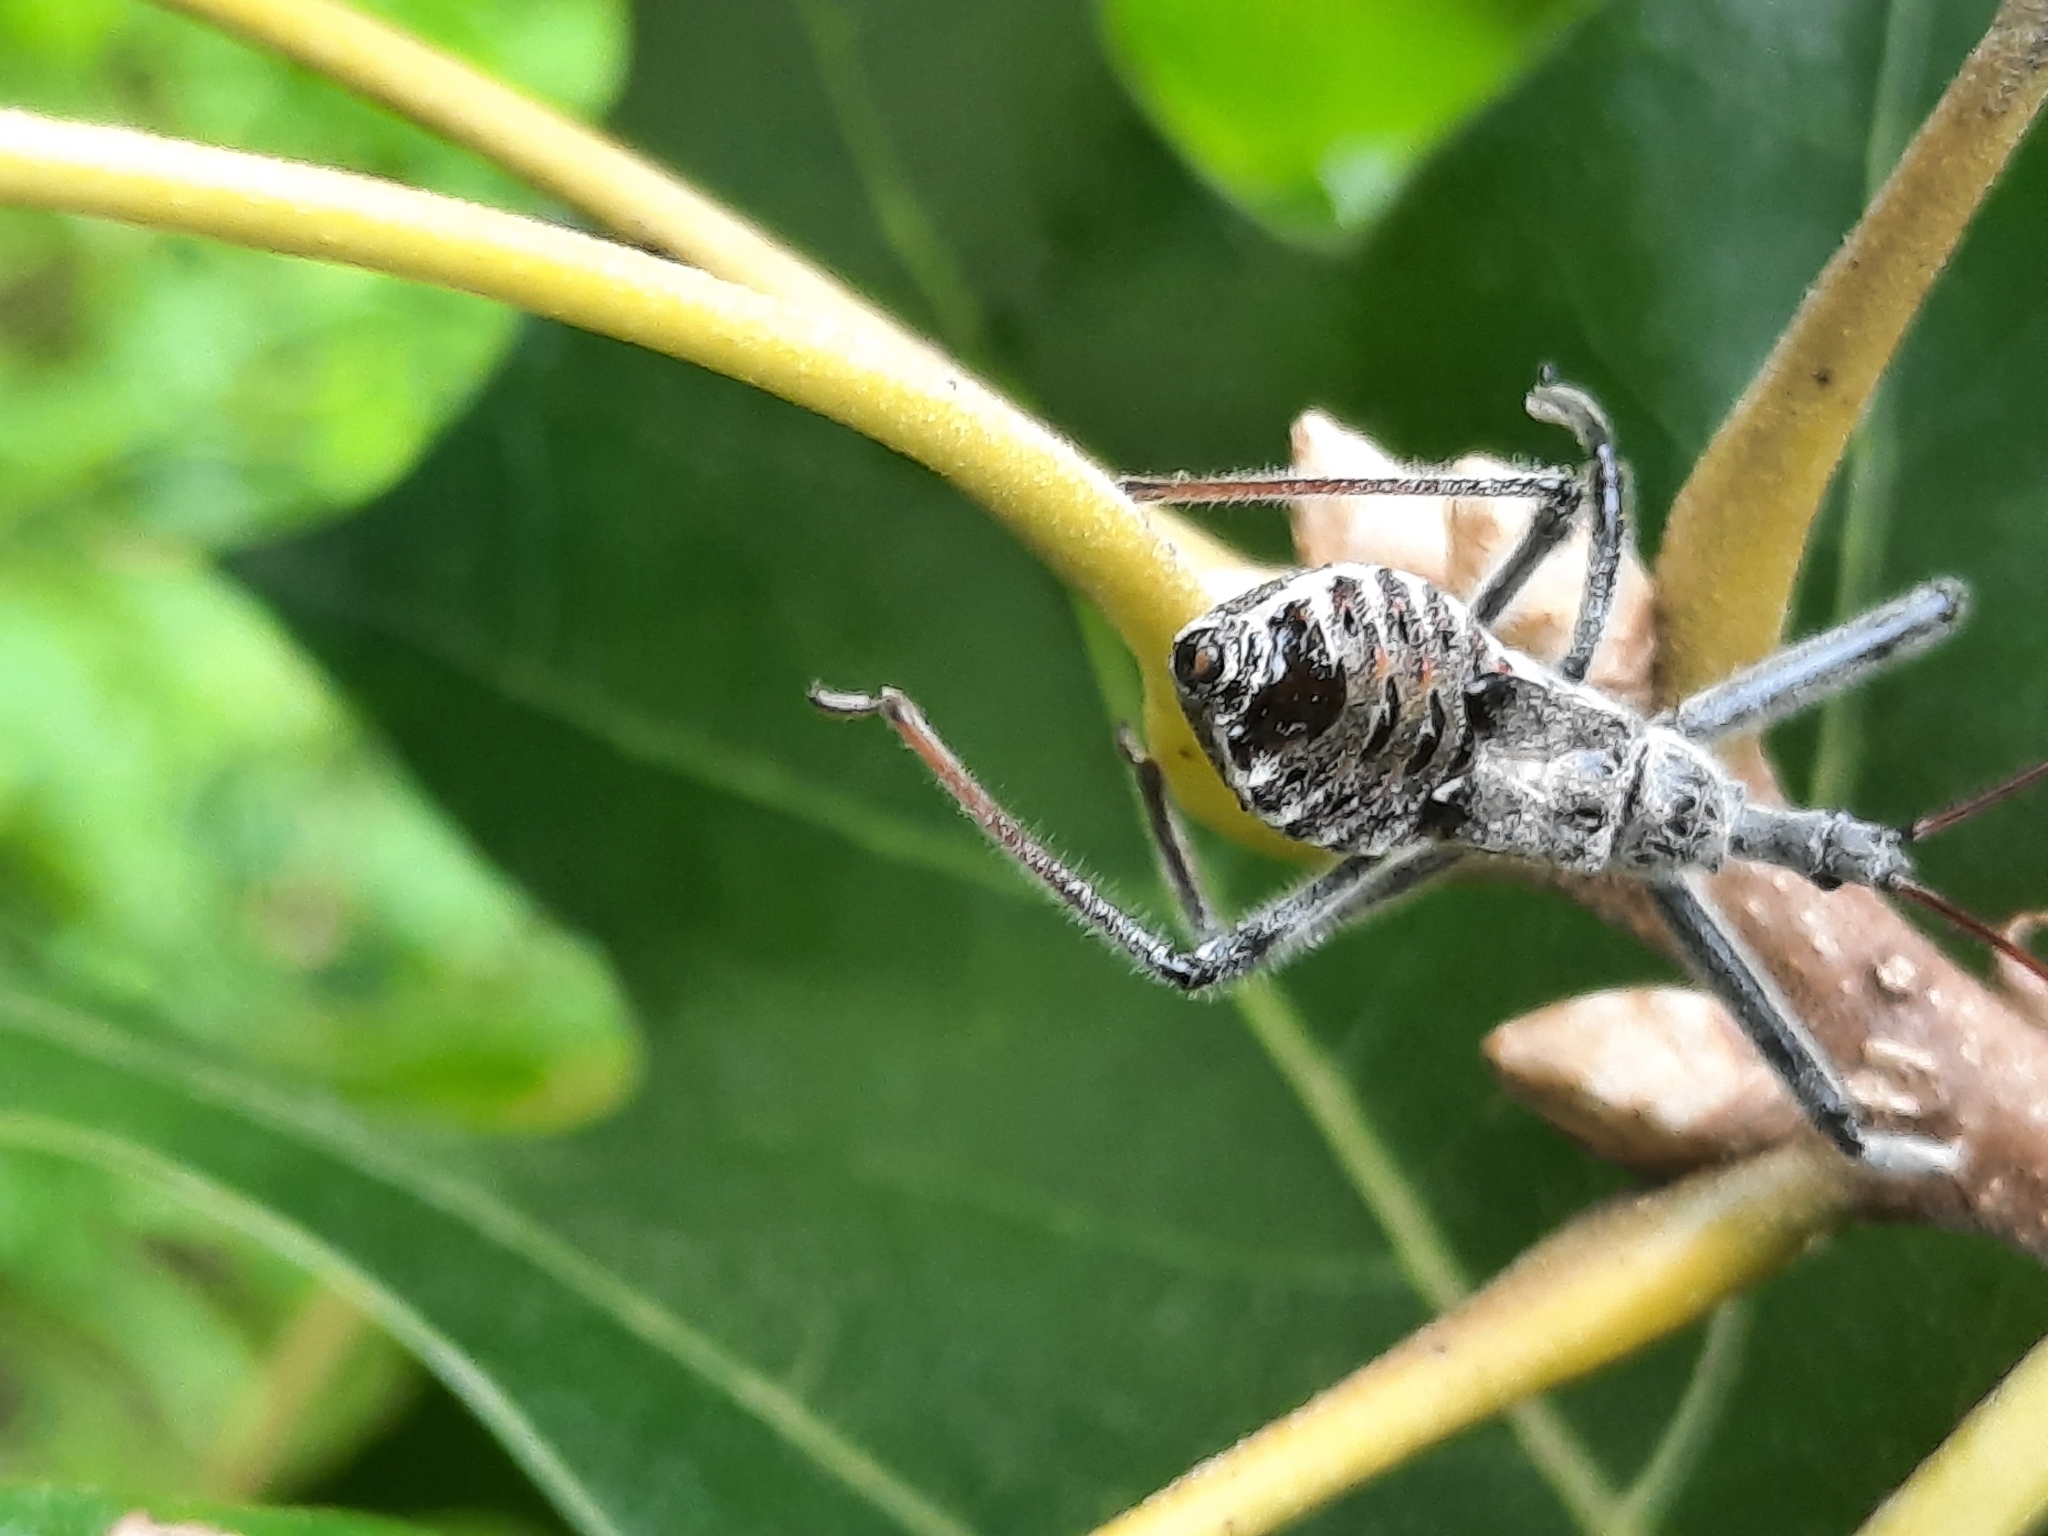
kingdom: Animalia
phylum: Arthropoda
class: Insecta
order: Hemiptera
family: Reduviidae
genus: Arilus
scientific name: Arilus cristatus
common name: North american wheel bug
